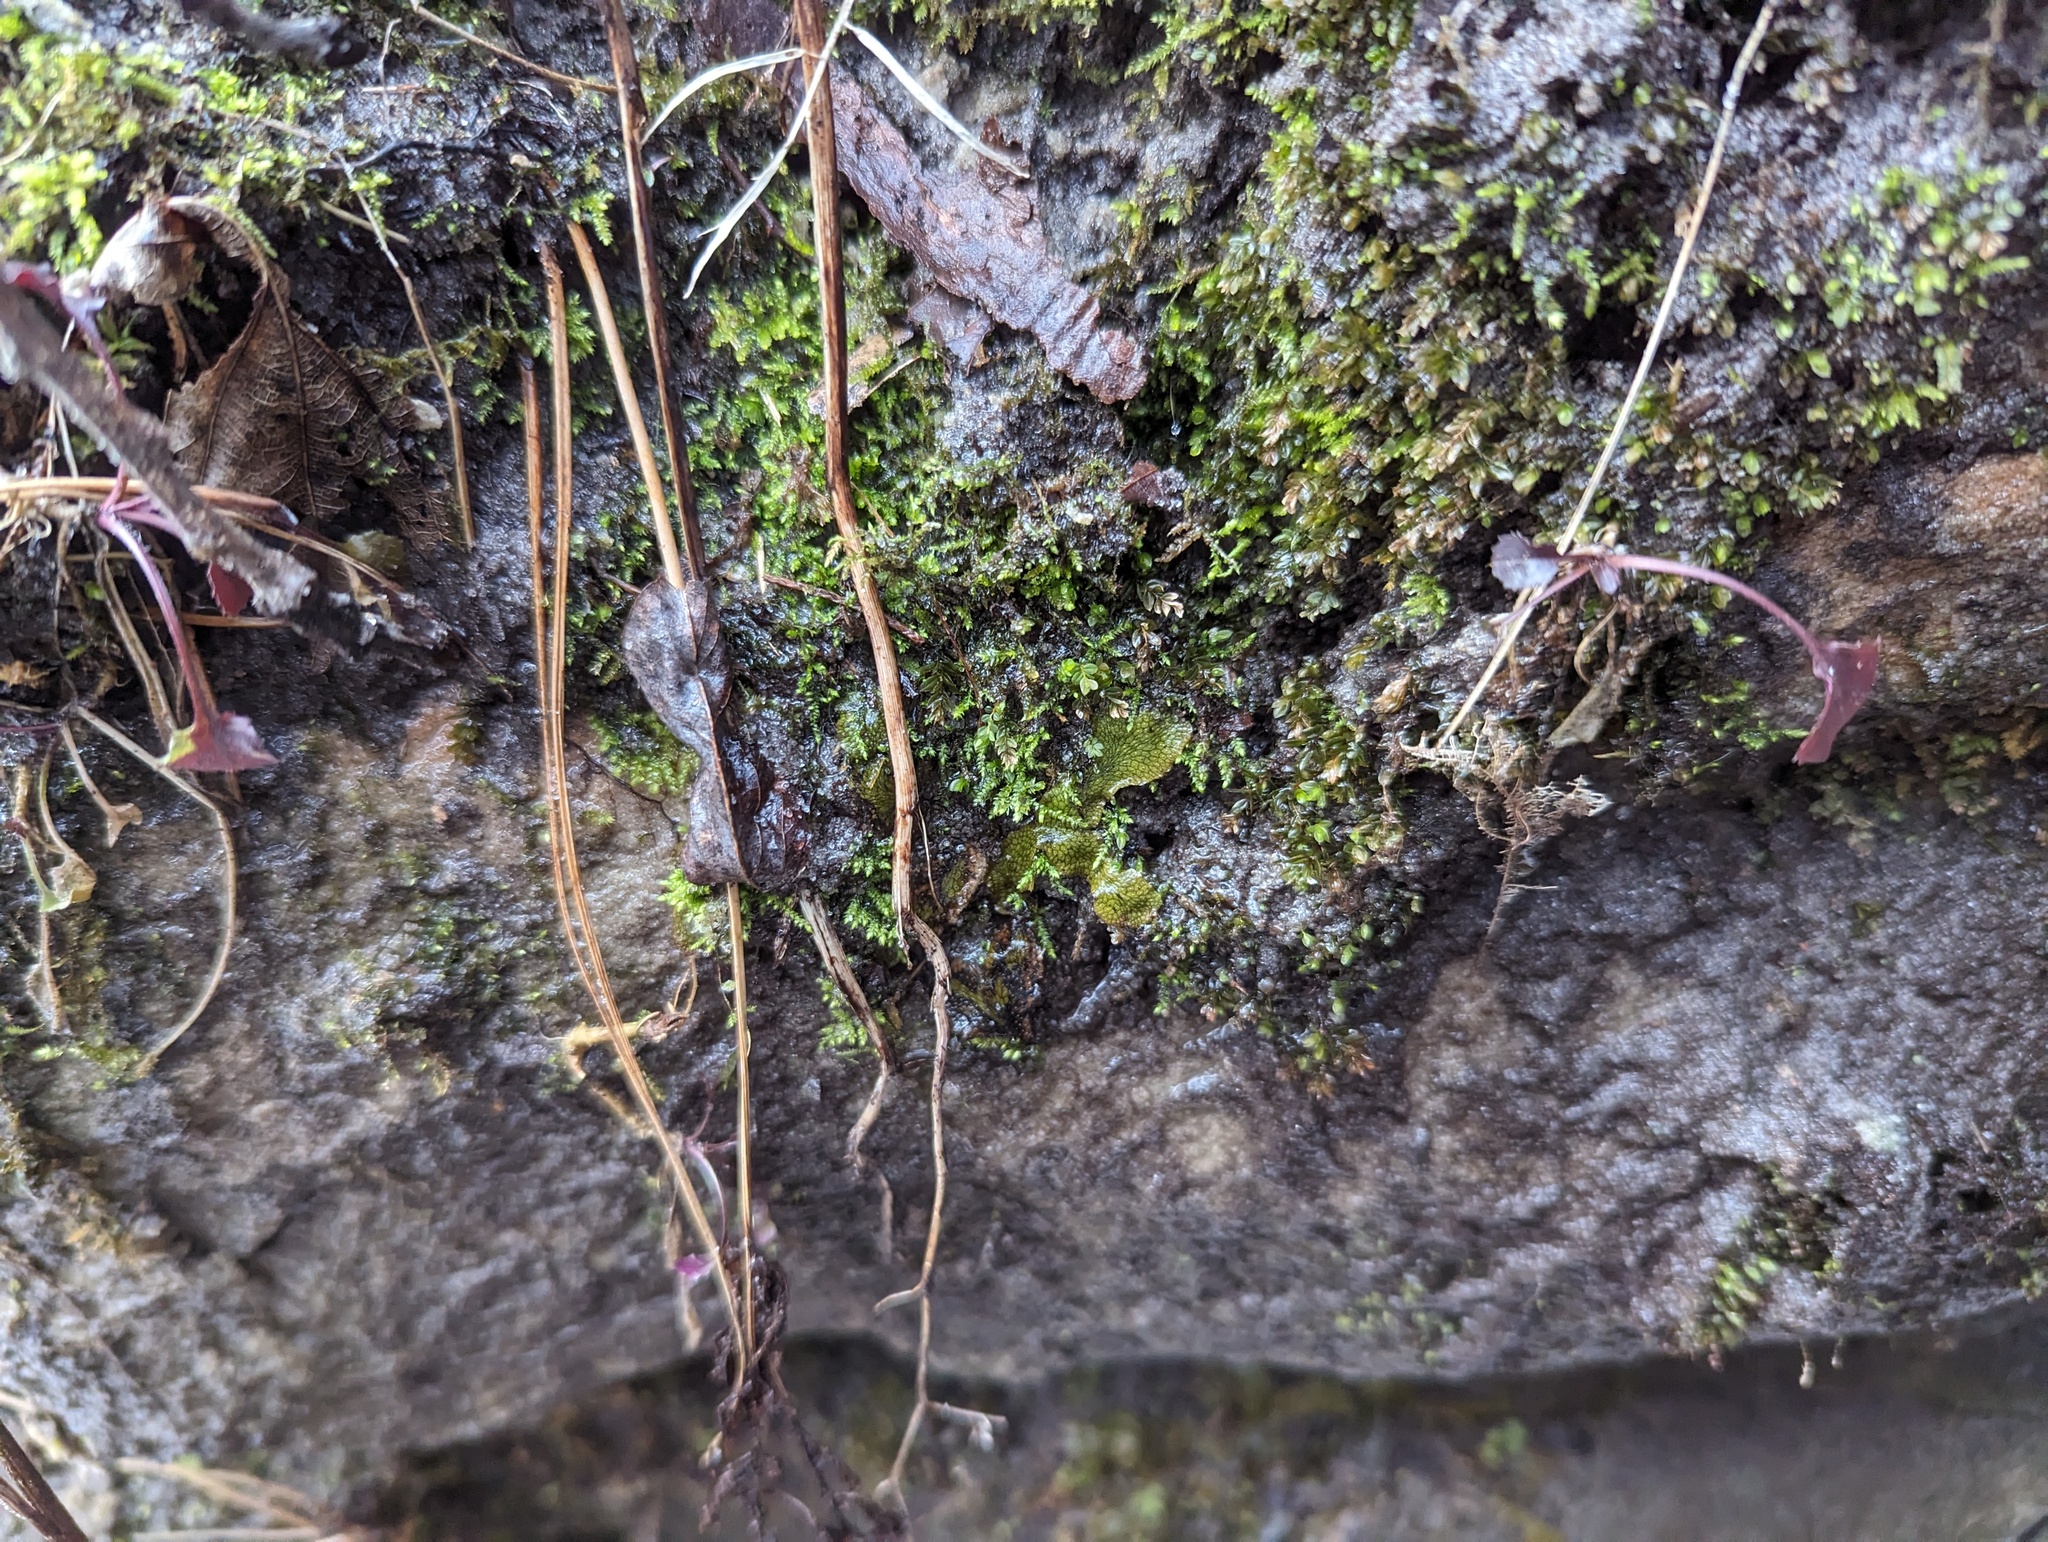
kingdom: Plantae
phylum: Marchantiophyta
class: Marchantiopsida
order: Marchantiales
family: Conocephalaceae
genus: Conocephalum
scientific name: Conocephalum salebrosum
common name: Cat-tongue liverwort
